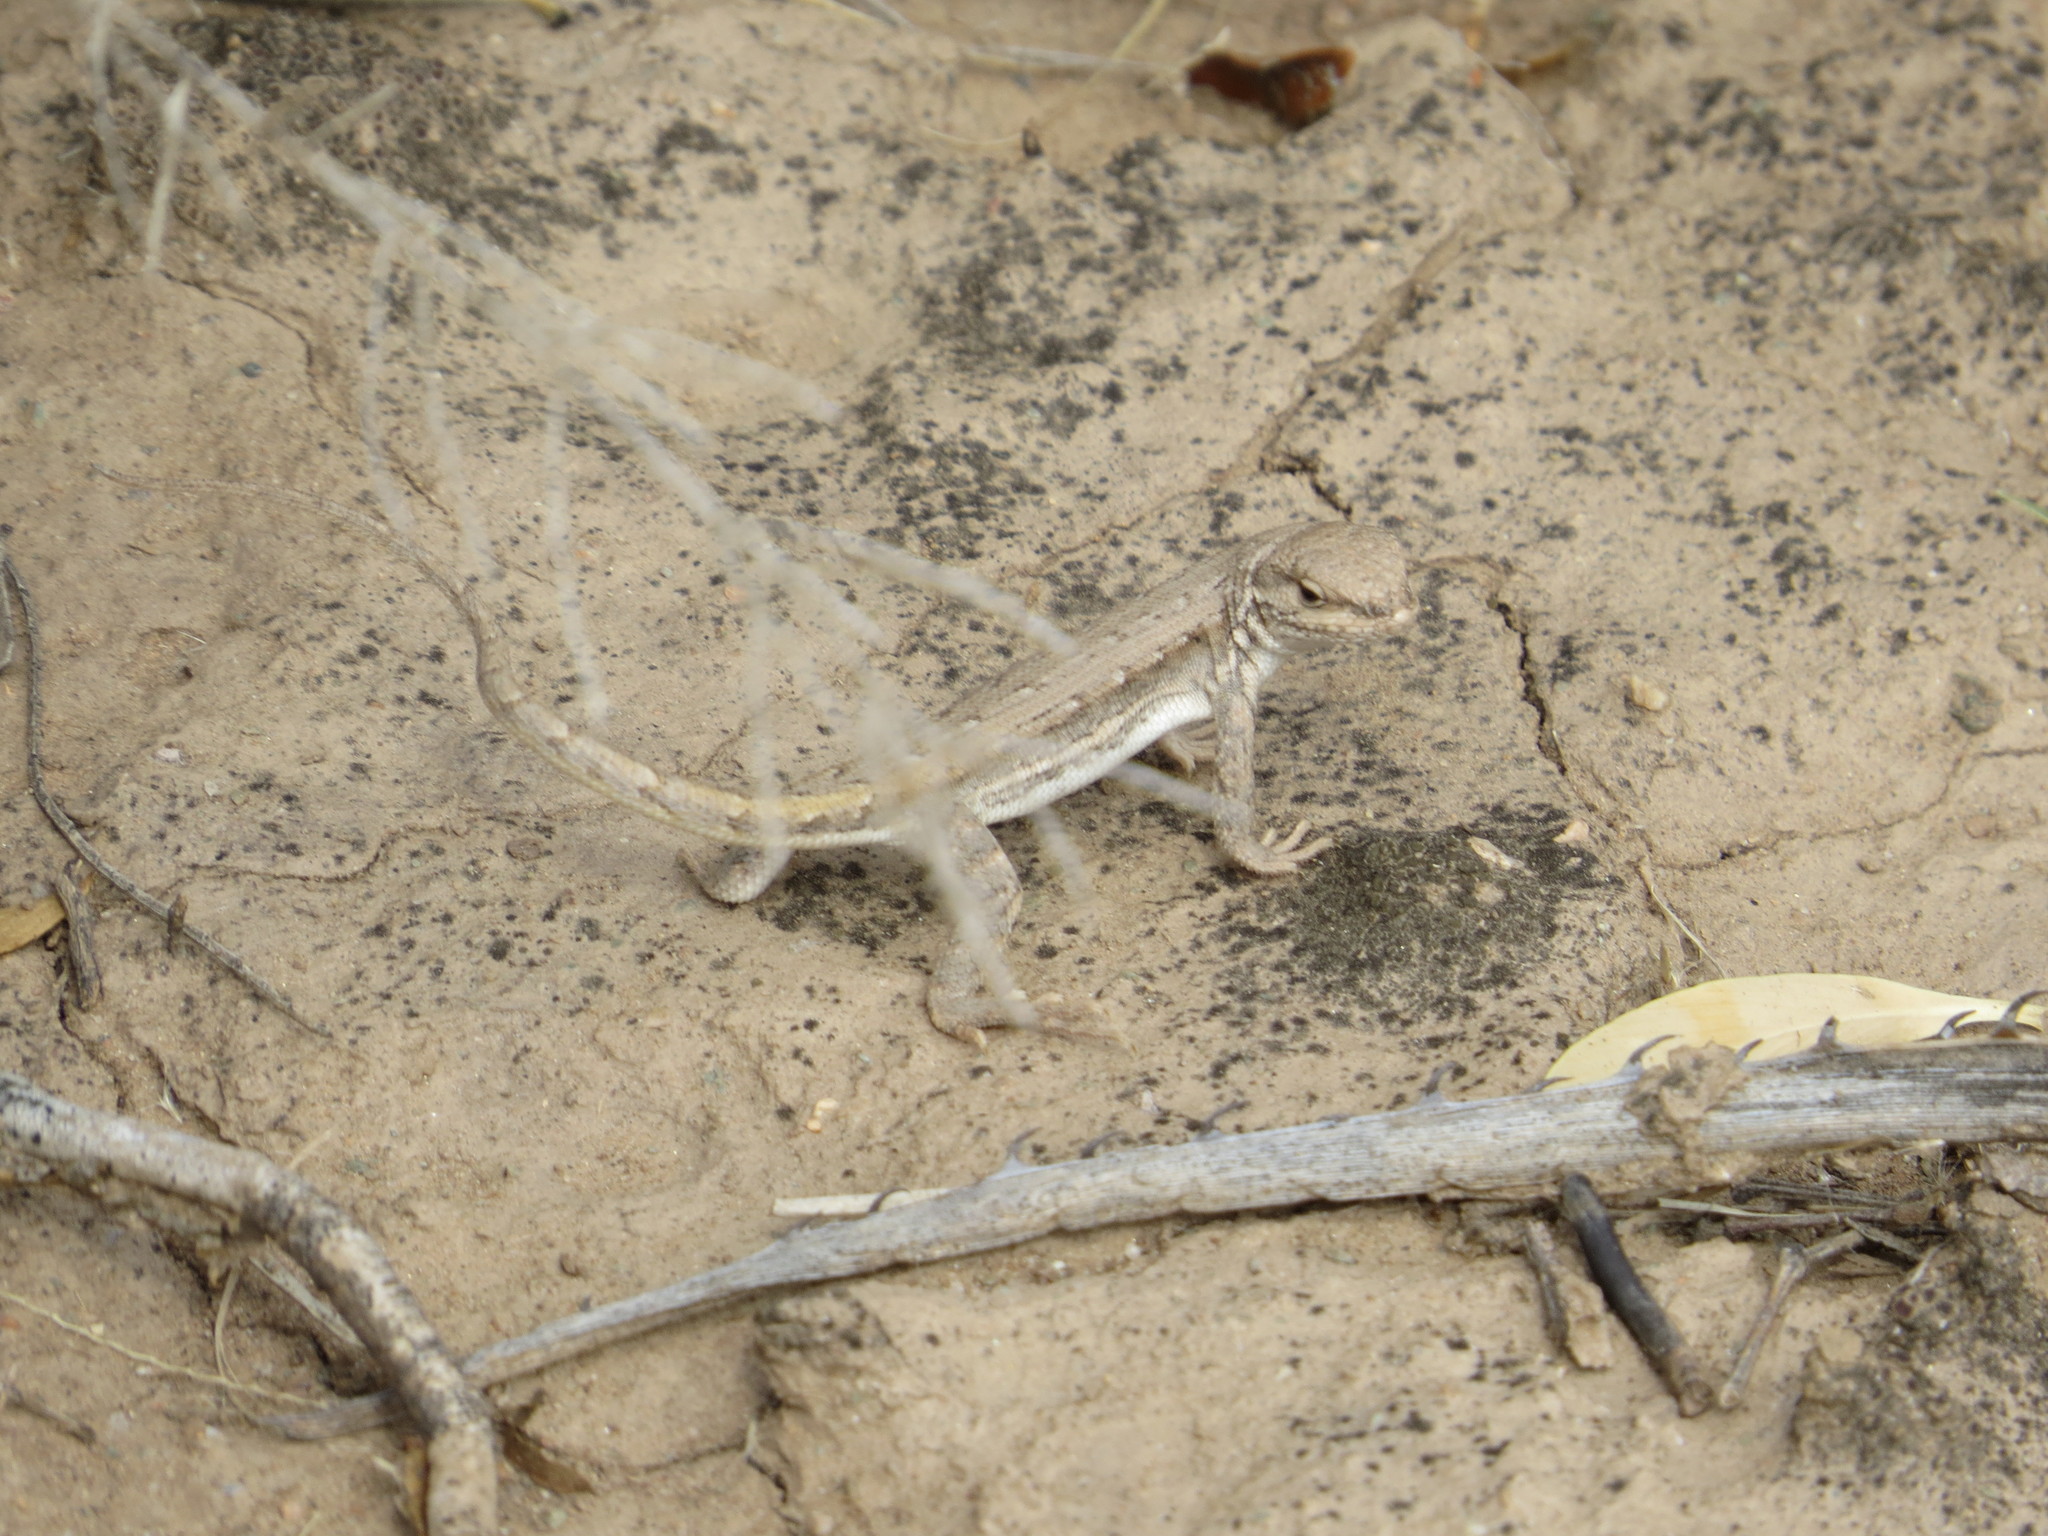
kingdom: Animalia
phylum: Chordata
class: Squamata
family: Liolaemidae
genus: Liolaemus
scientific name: Liolaemus chacoensis
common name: Chaco tree iguana
